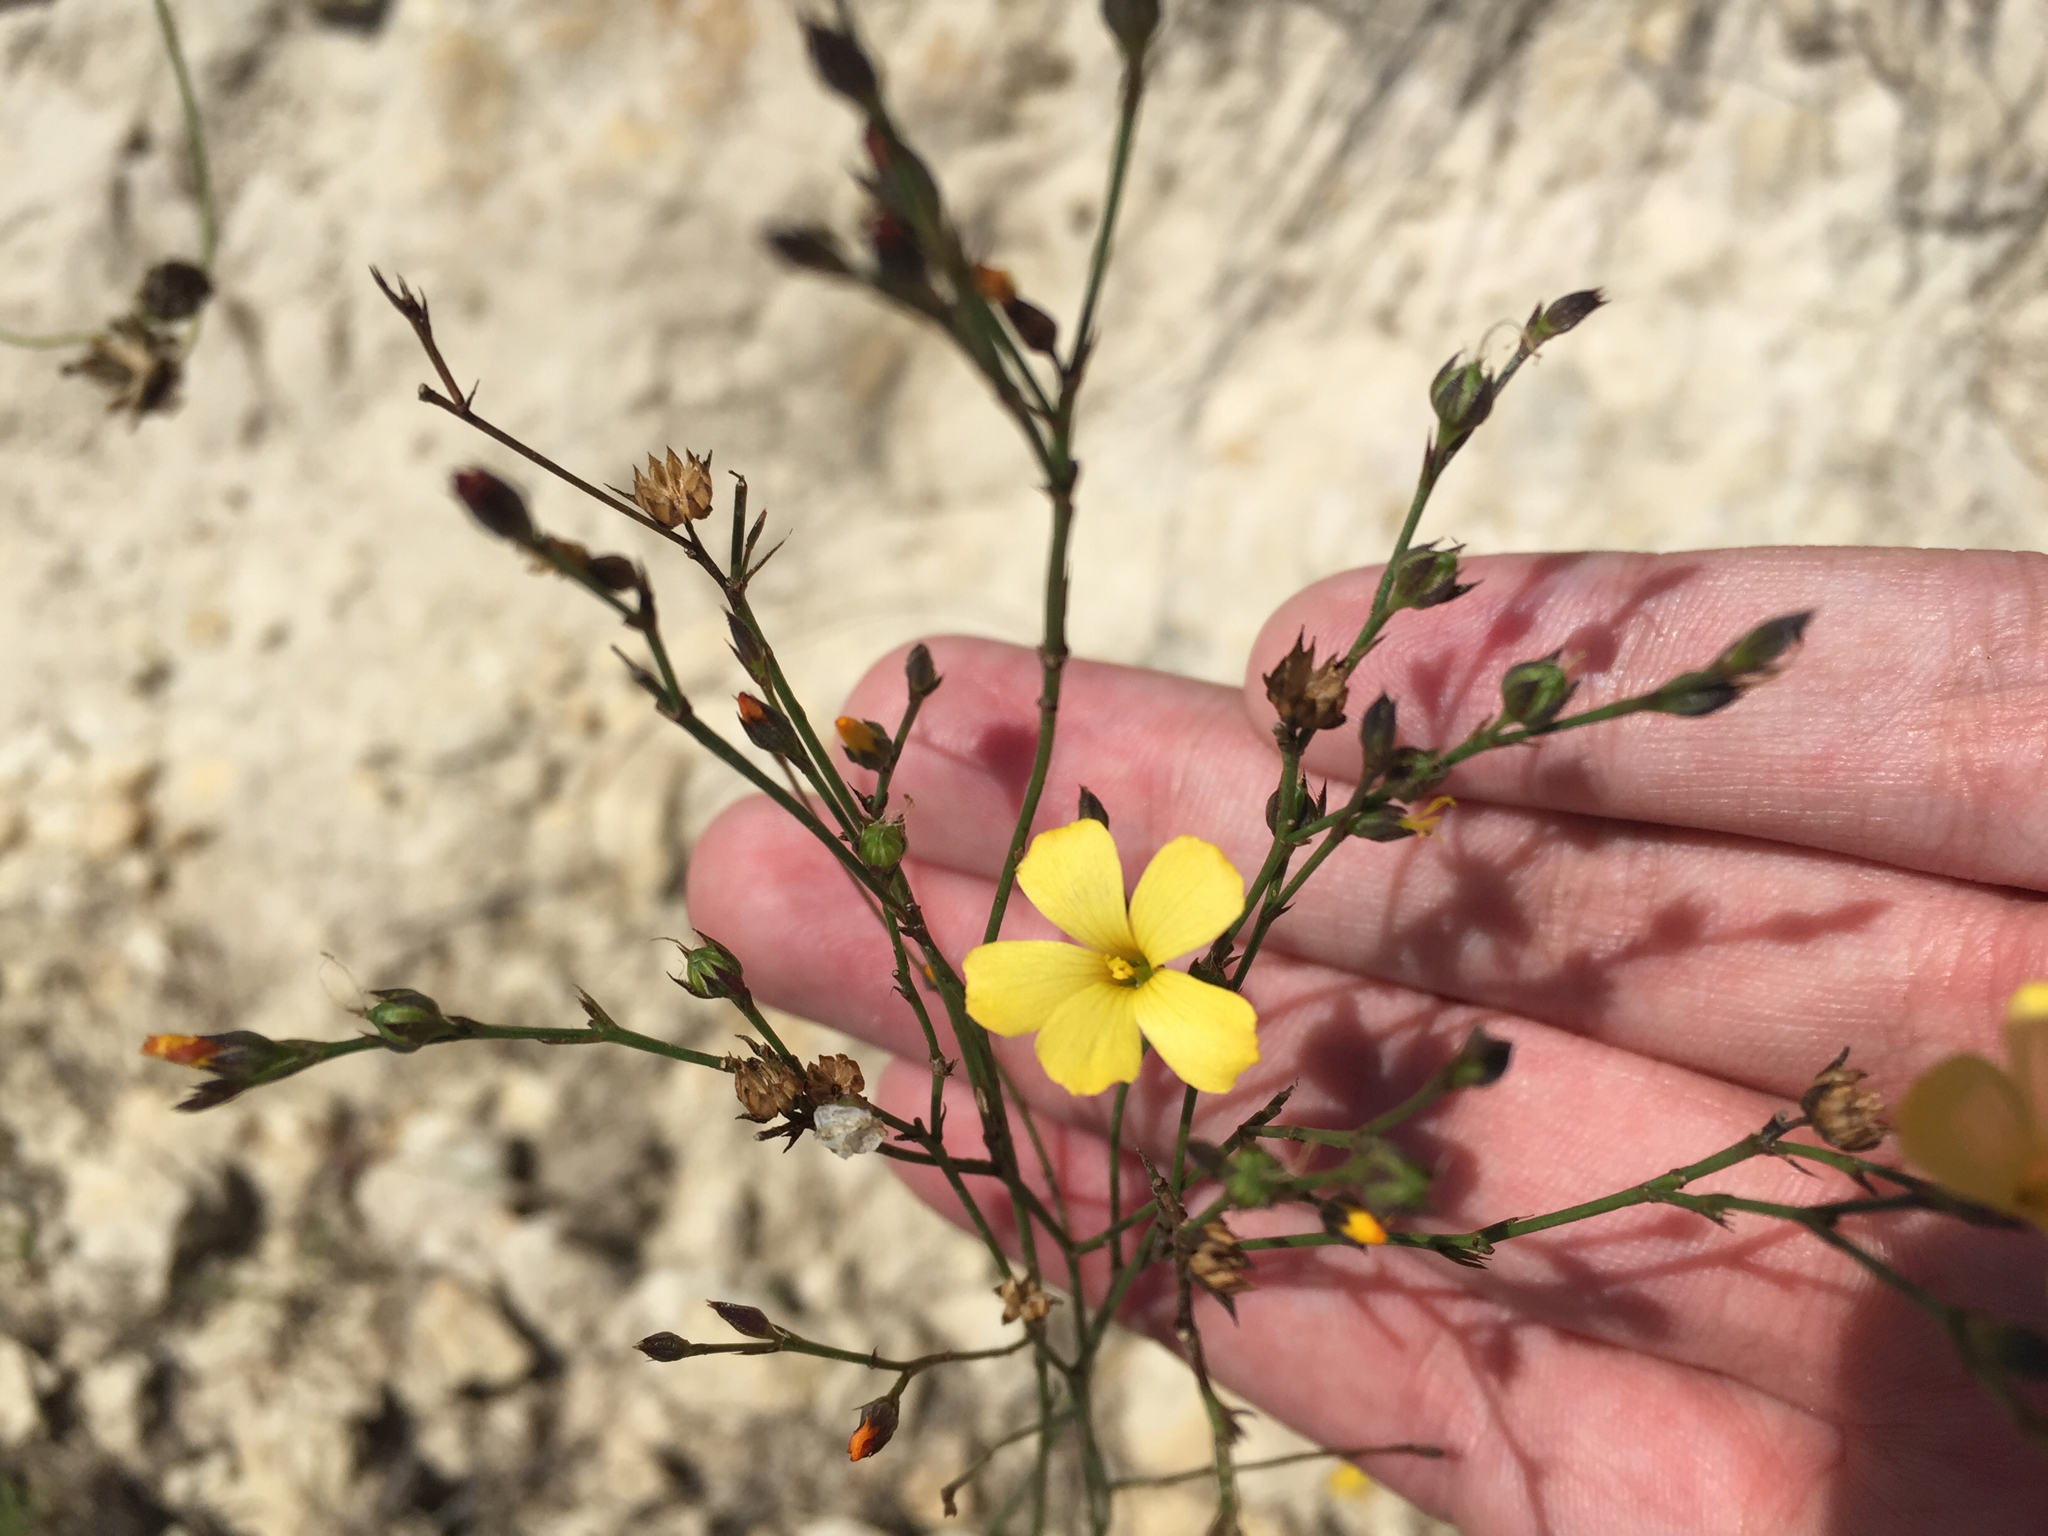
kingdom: Plantae
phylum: Tracheophyta
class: Magnoliopsida
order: Malpighiales
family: Linaceae
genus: Linum
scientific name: Linum rupestre
